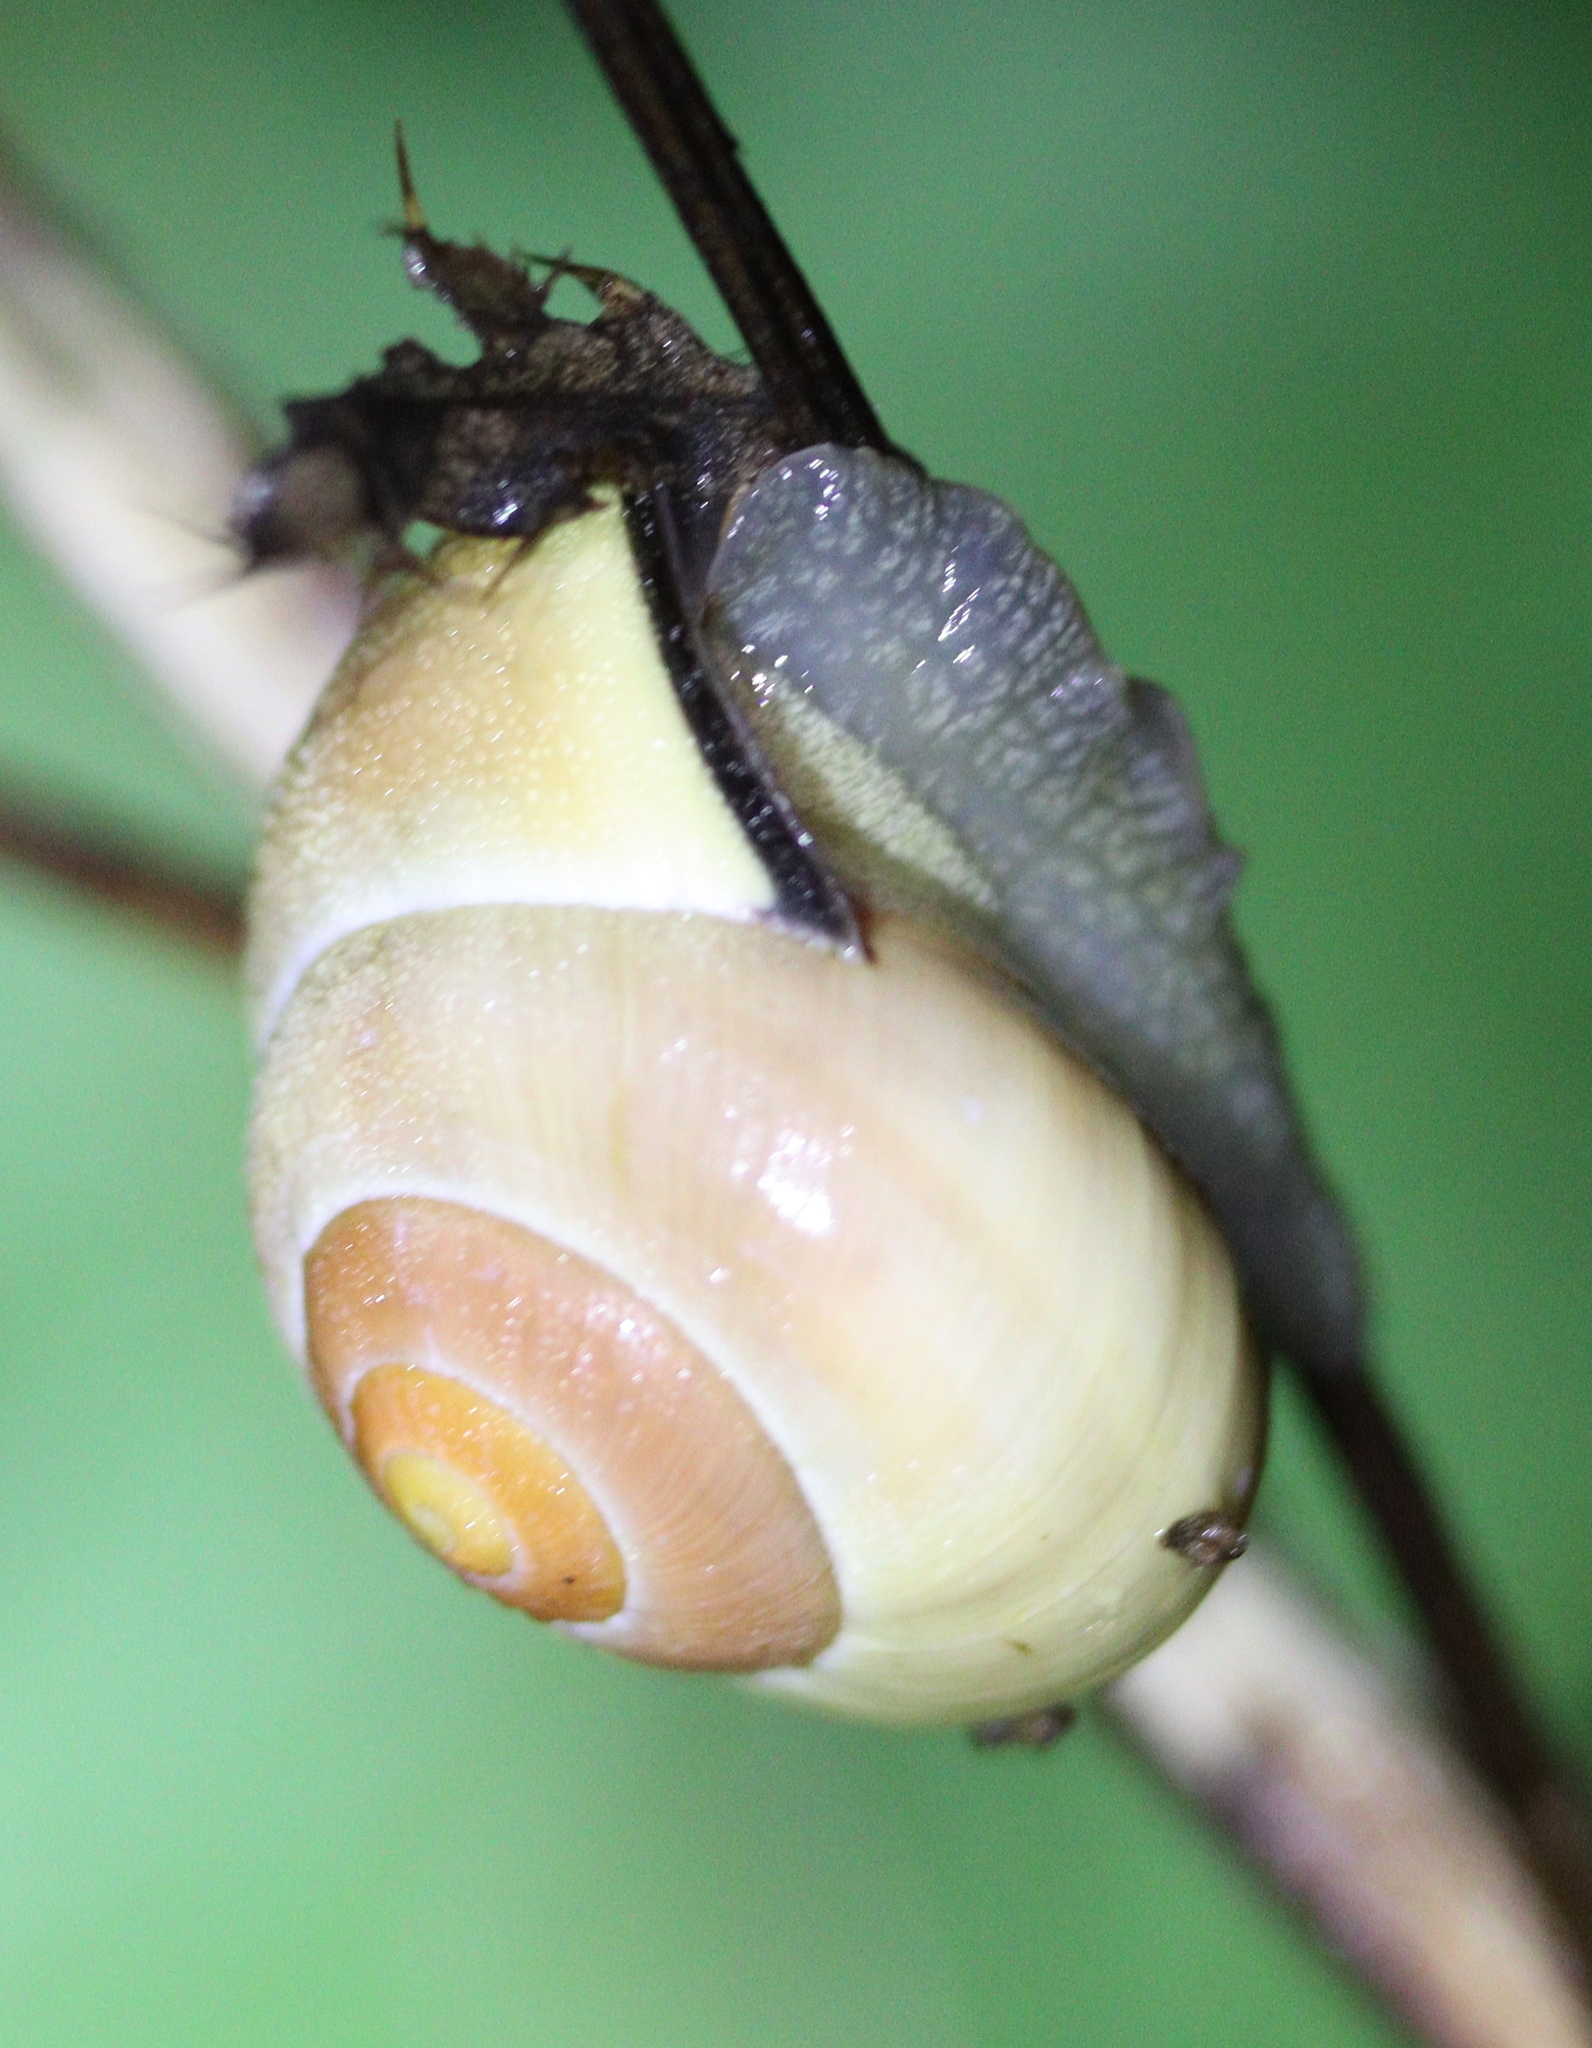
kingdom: Animalia
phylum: Mollusca
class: Gastropoda
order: Stylommatophora
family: Helicidae
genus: Cepaea
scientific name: Cepaea nemoralis
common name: Grovesnail
